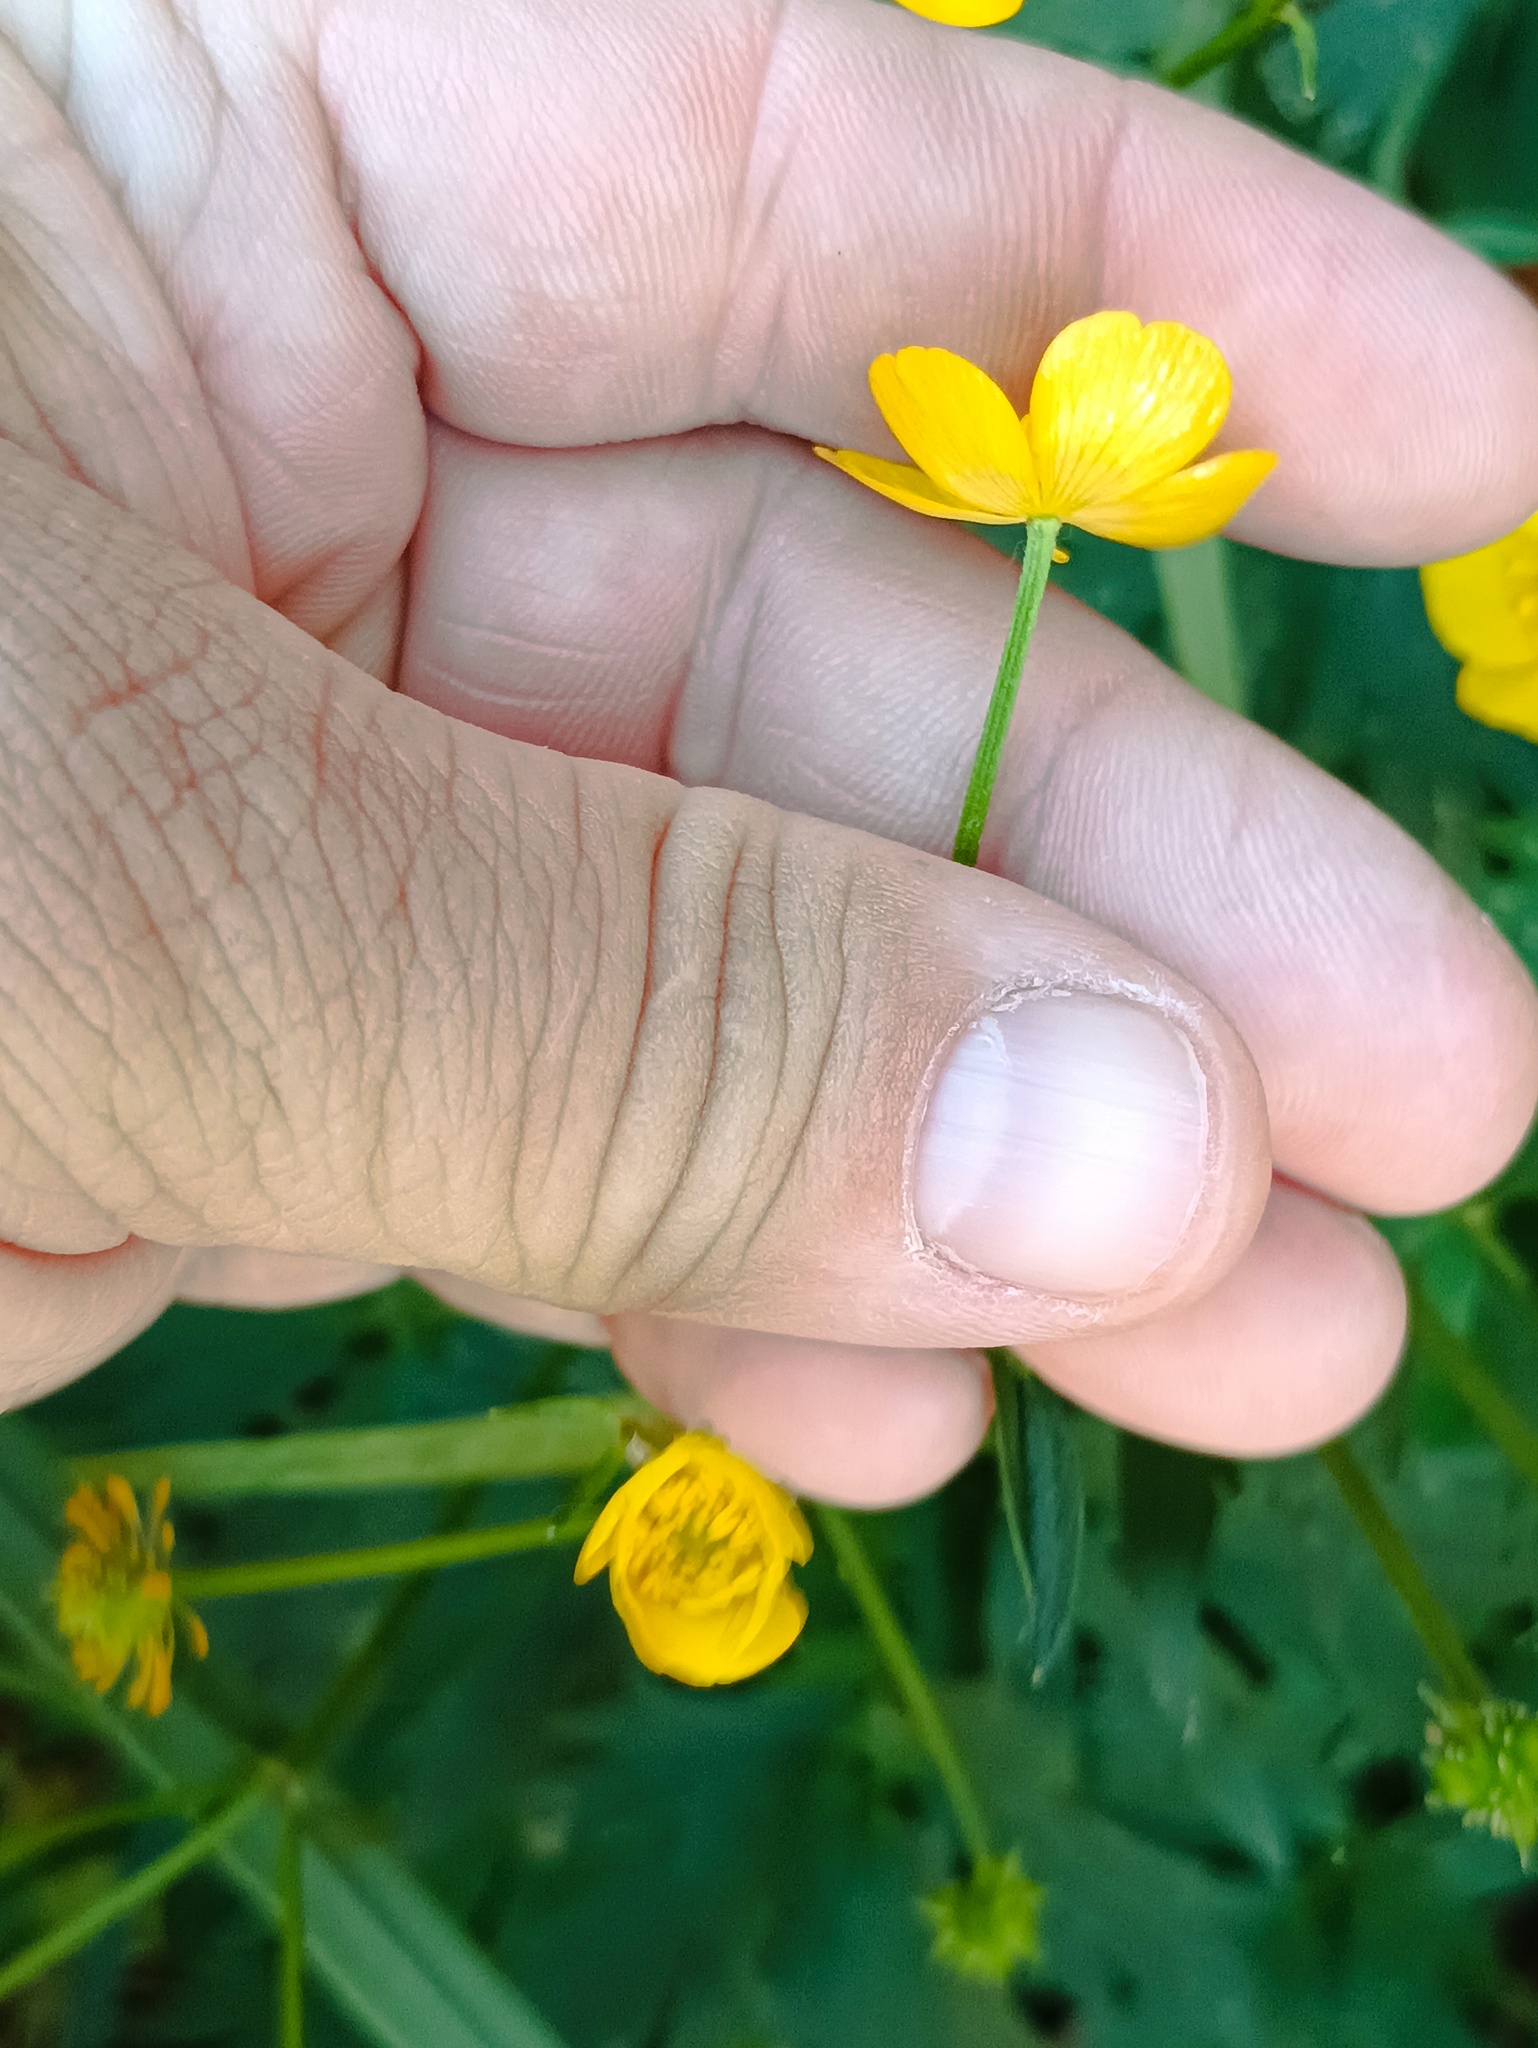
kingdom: Plantae
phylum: Tracheophyta
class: Magnoliopsida
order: Ranunculales
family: Ranunculaceae
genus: Ranunculus
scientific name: Ranunculus repens
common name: Creeping buttercup
